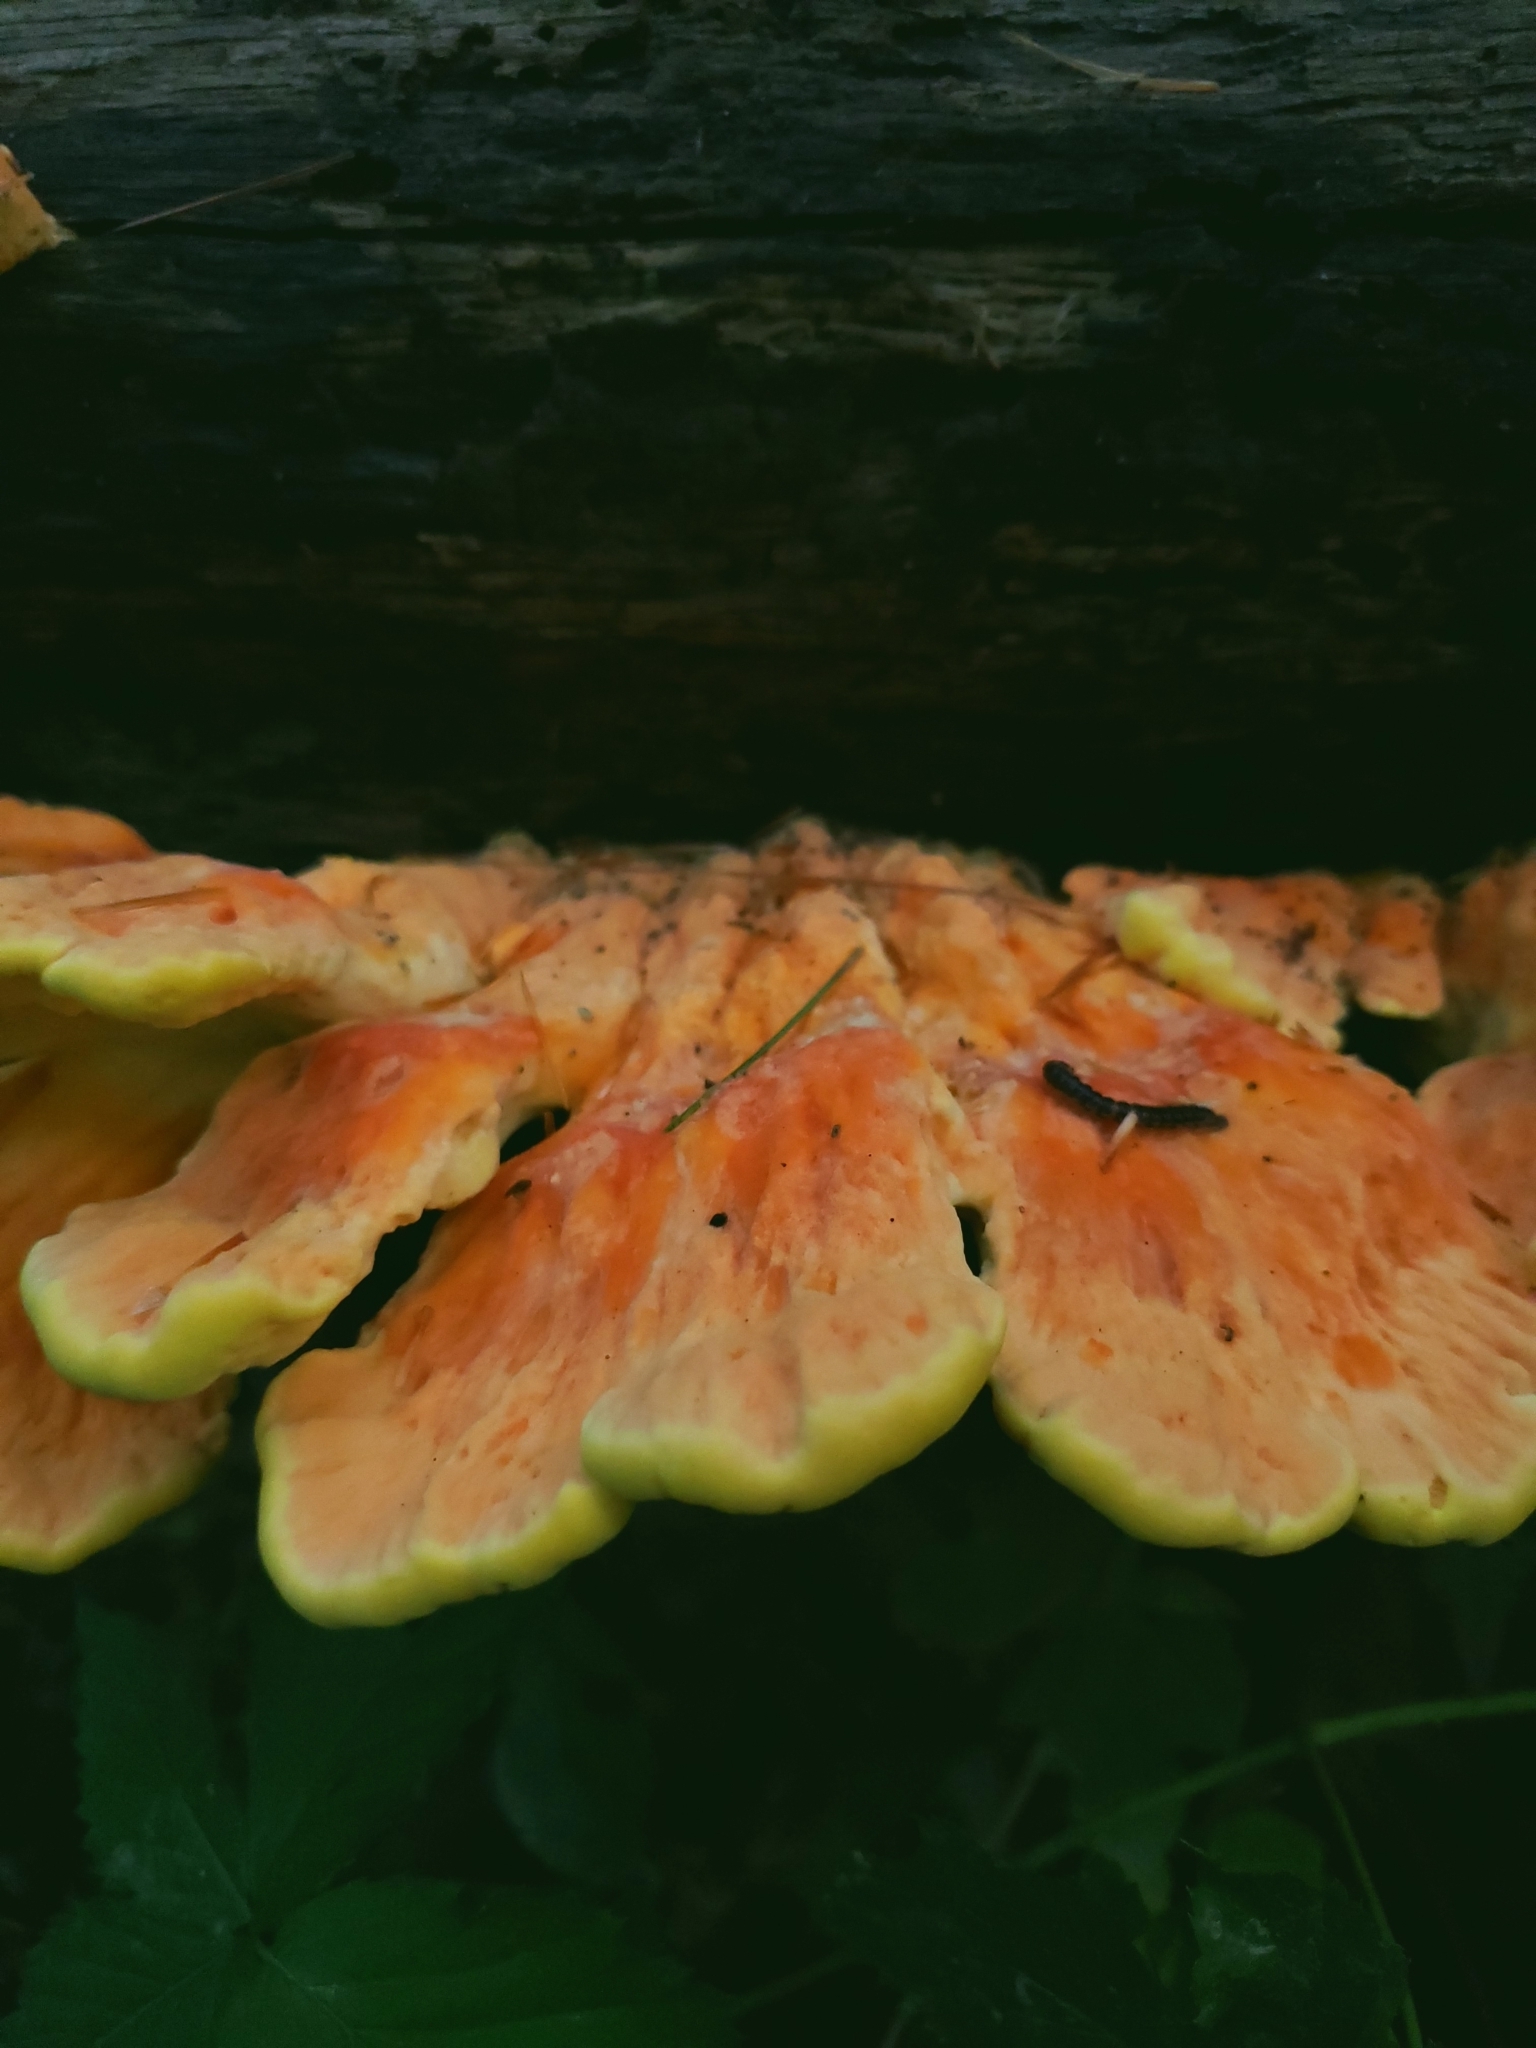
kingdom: Fungi
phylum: Basidiomycota
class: Agaricomycetes
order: Polyporales
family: Laetiporaceae
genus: Laetiporus
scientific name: Laetiporus sulphureus
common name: Chicken of the woods
